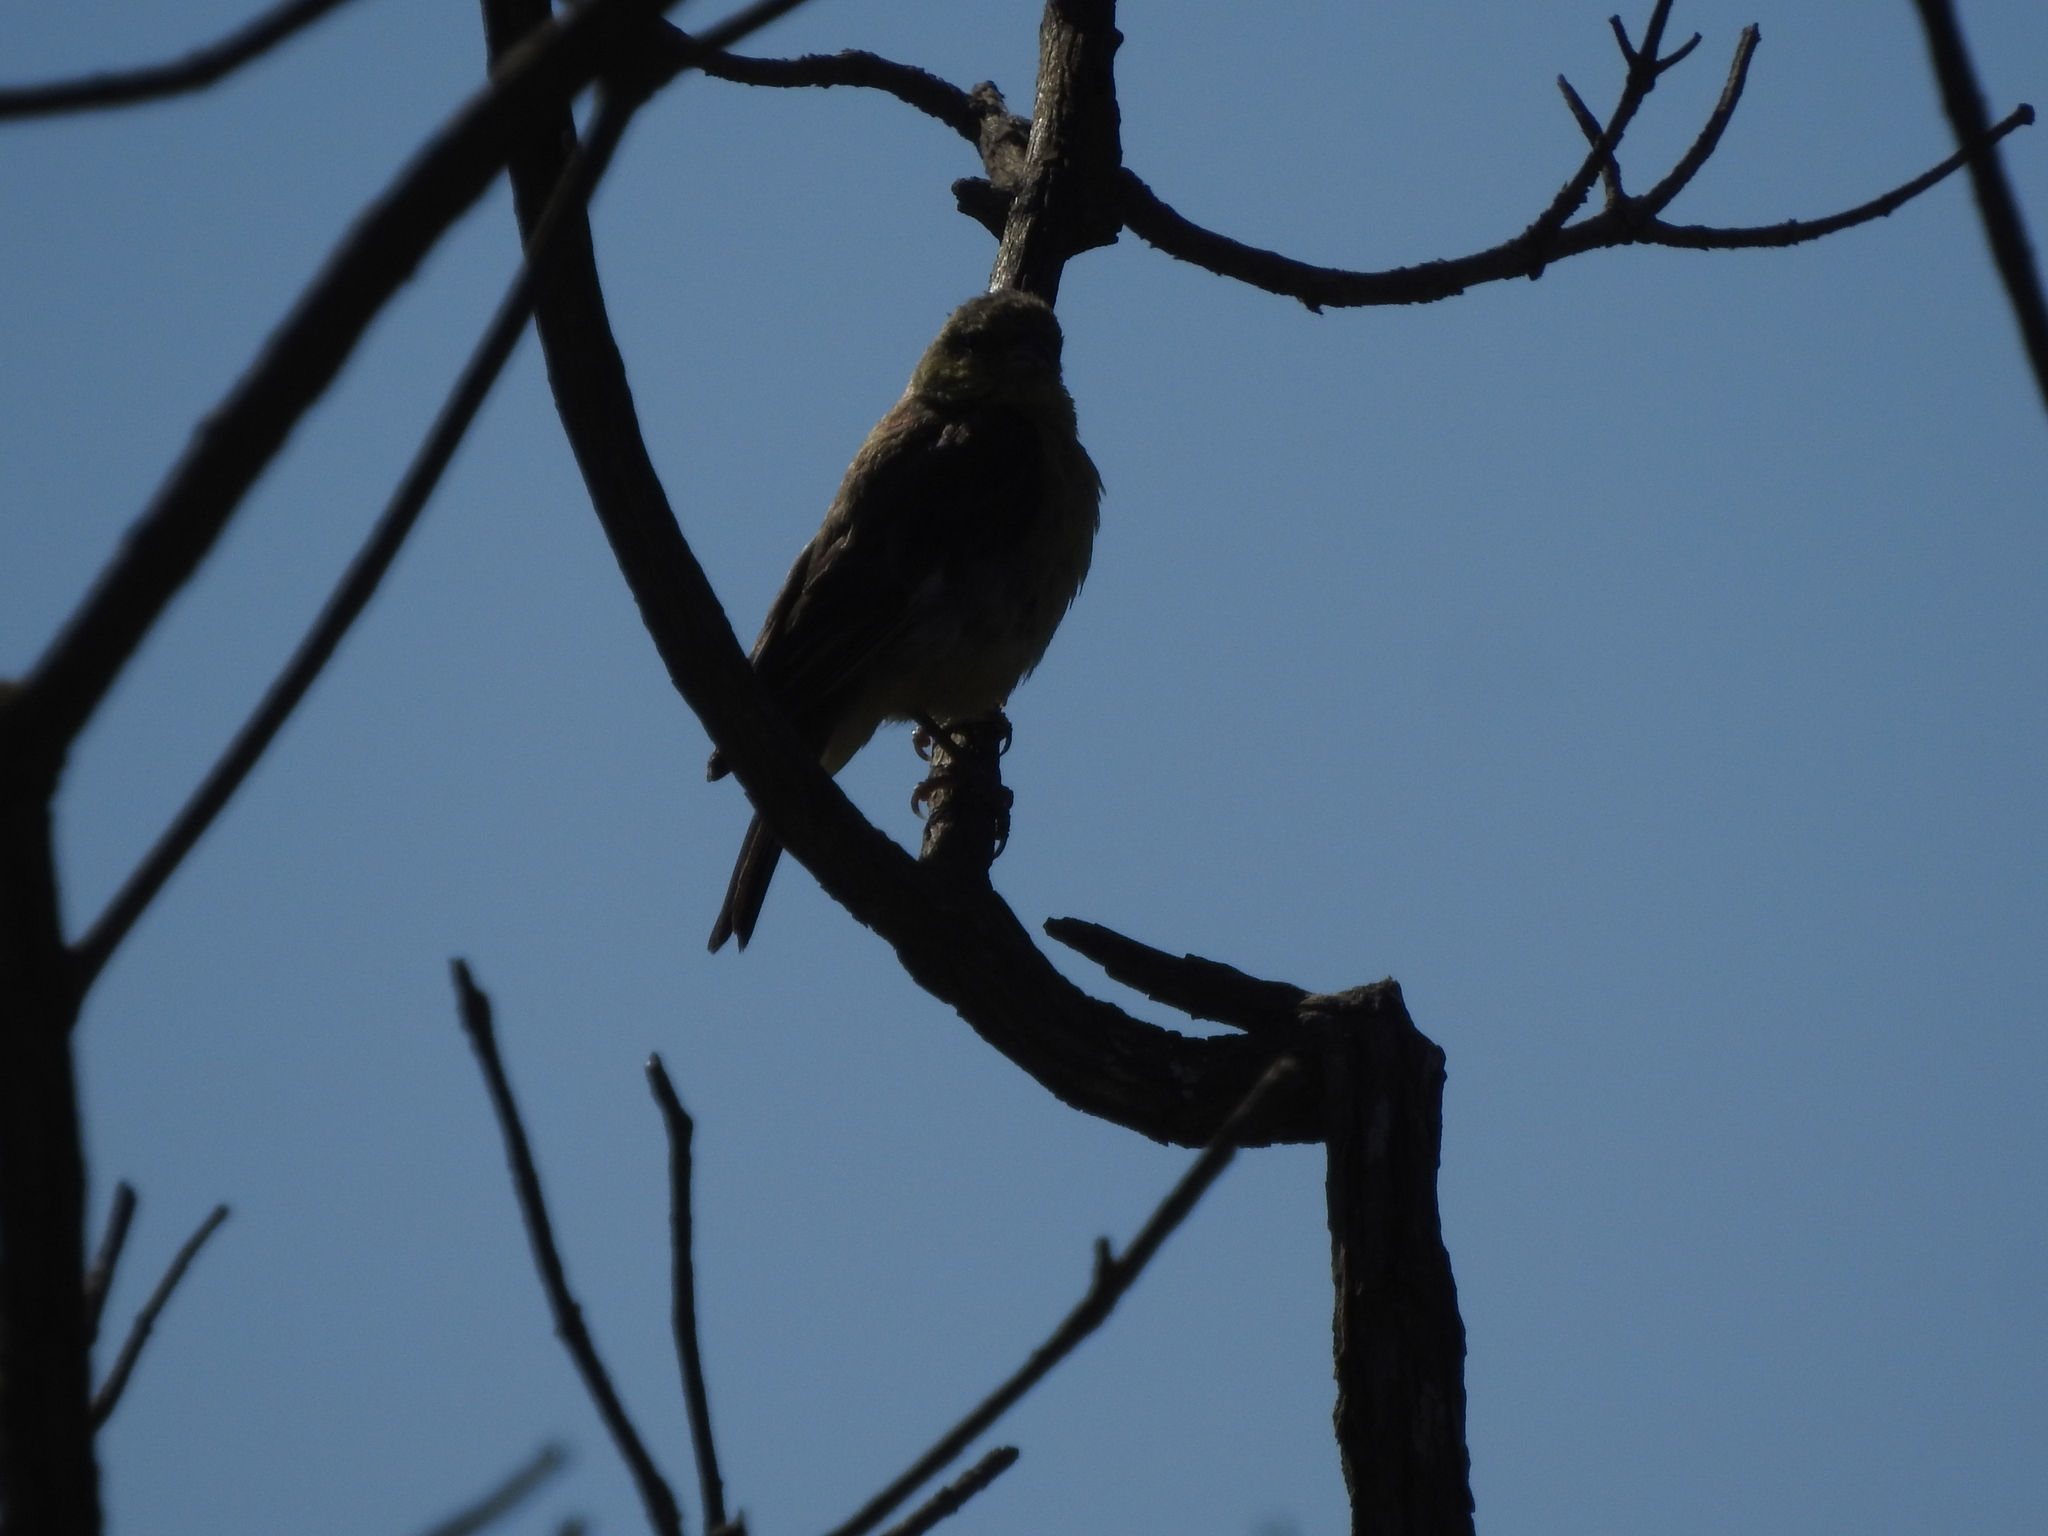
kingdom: Animalia
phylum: Chordata
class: Aves
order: Passeriformes
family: Fringillidae
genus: Haemorhous
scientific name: Haemorhous mexicanus
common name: House finch
